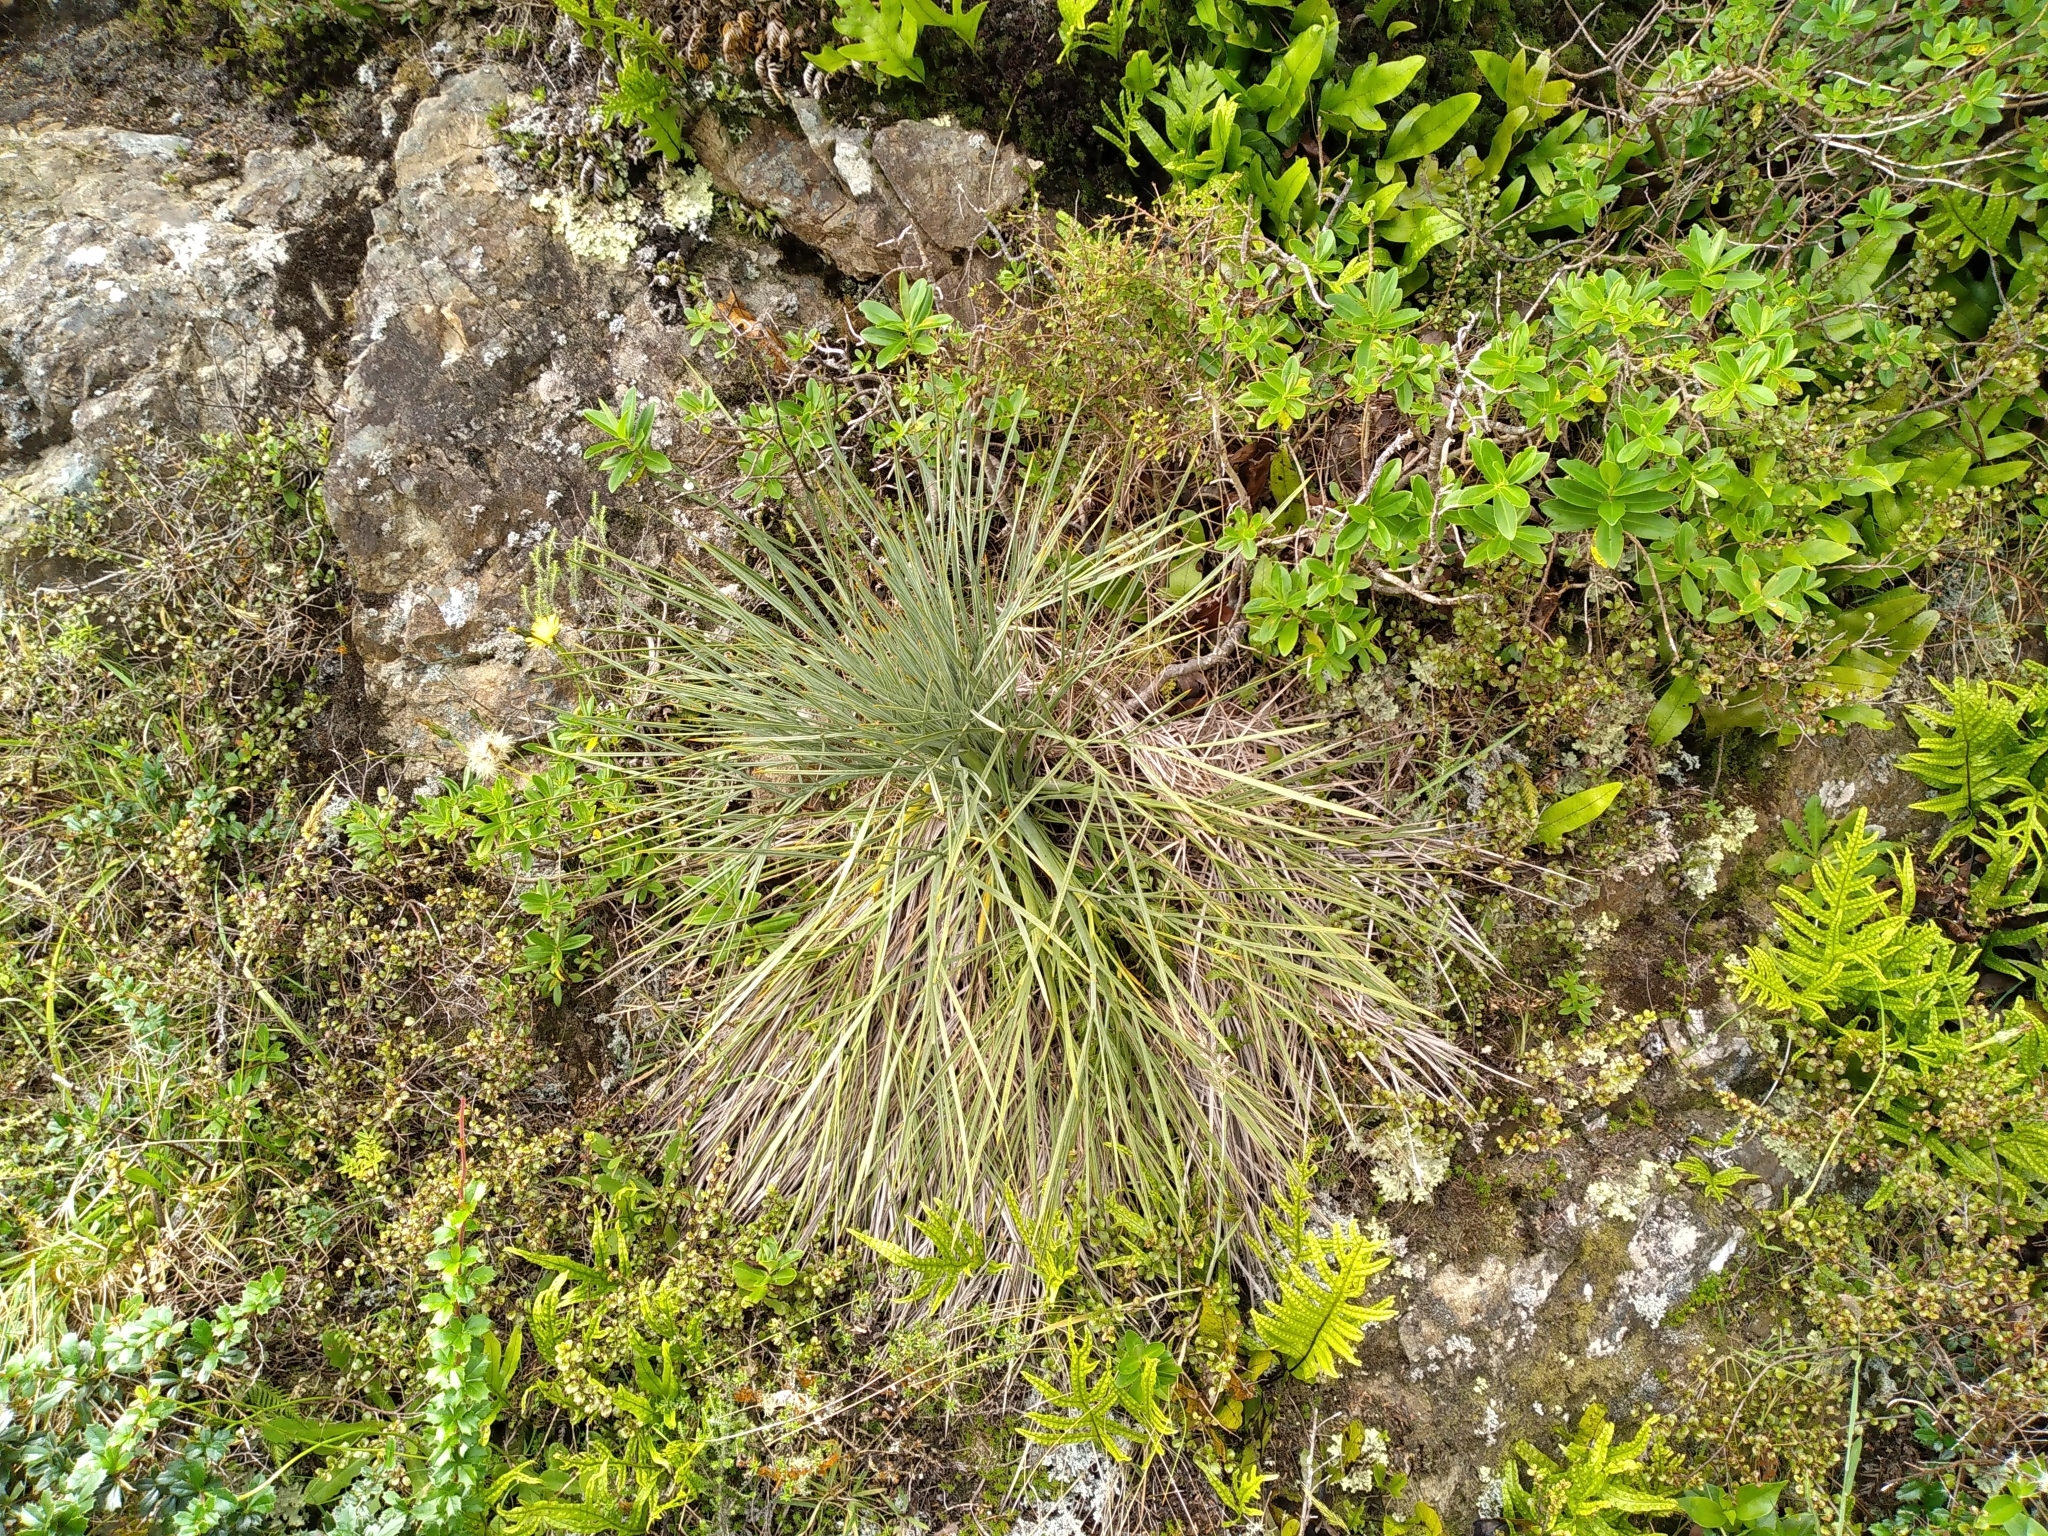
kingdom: Plantae
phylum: Tracheophyta
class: Magnoliopsida
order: Apiales
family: Apiaceae
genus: Aciphylla
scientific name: Aciphylla squarrosa
